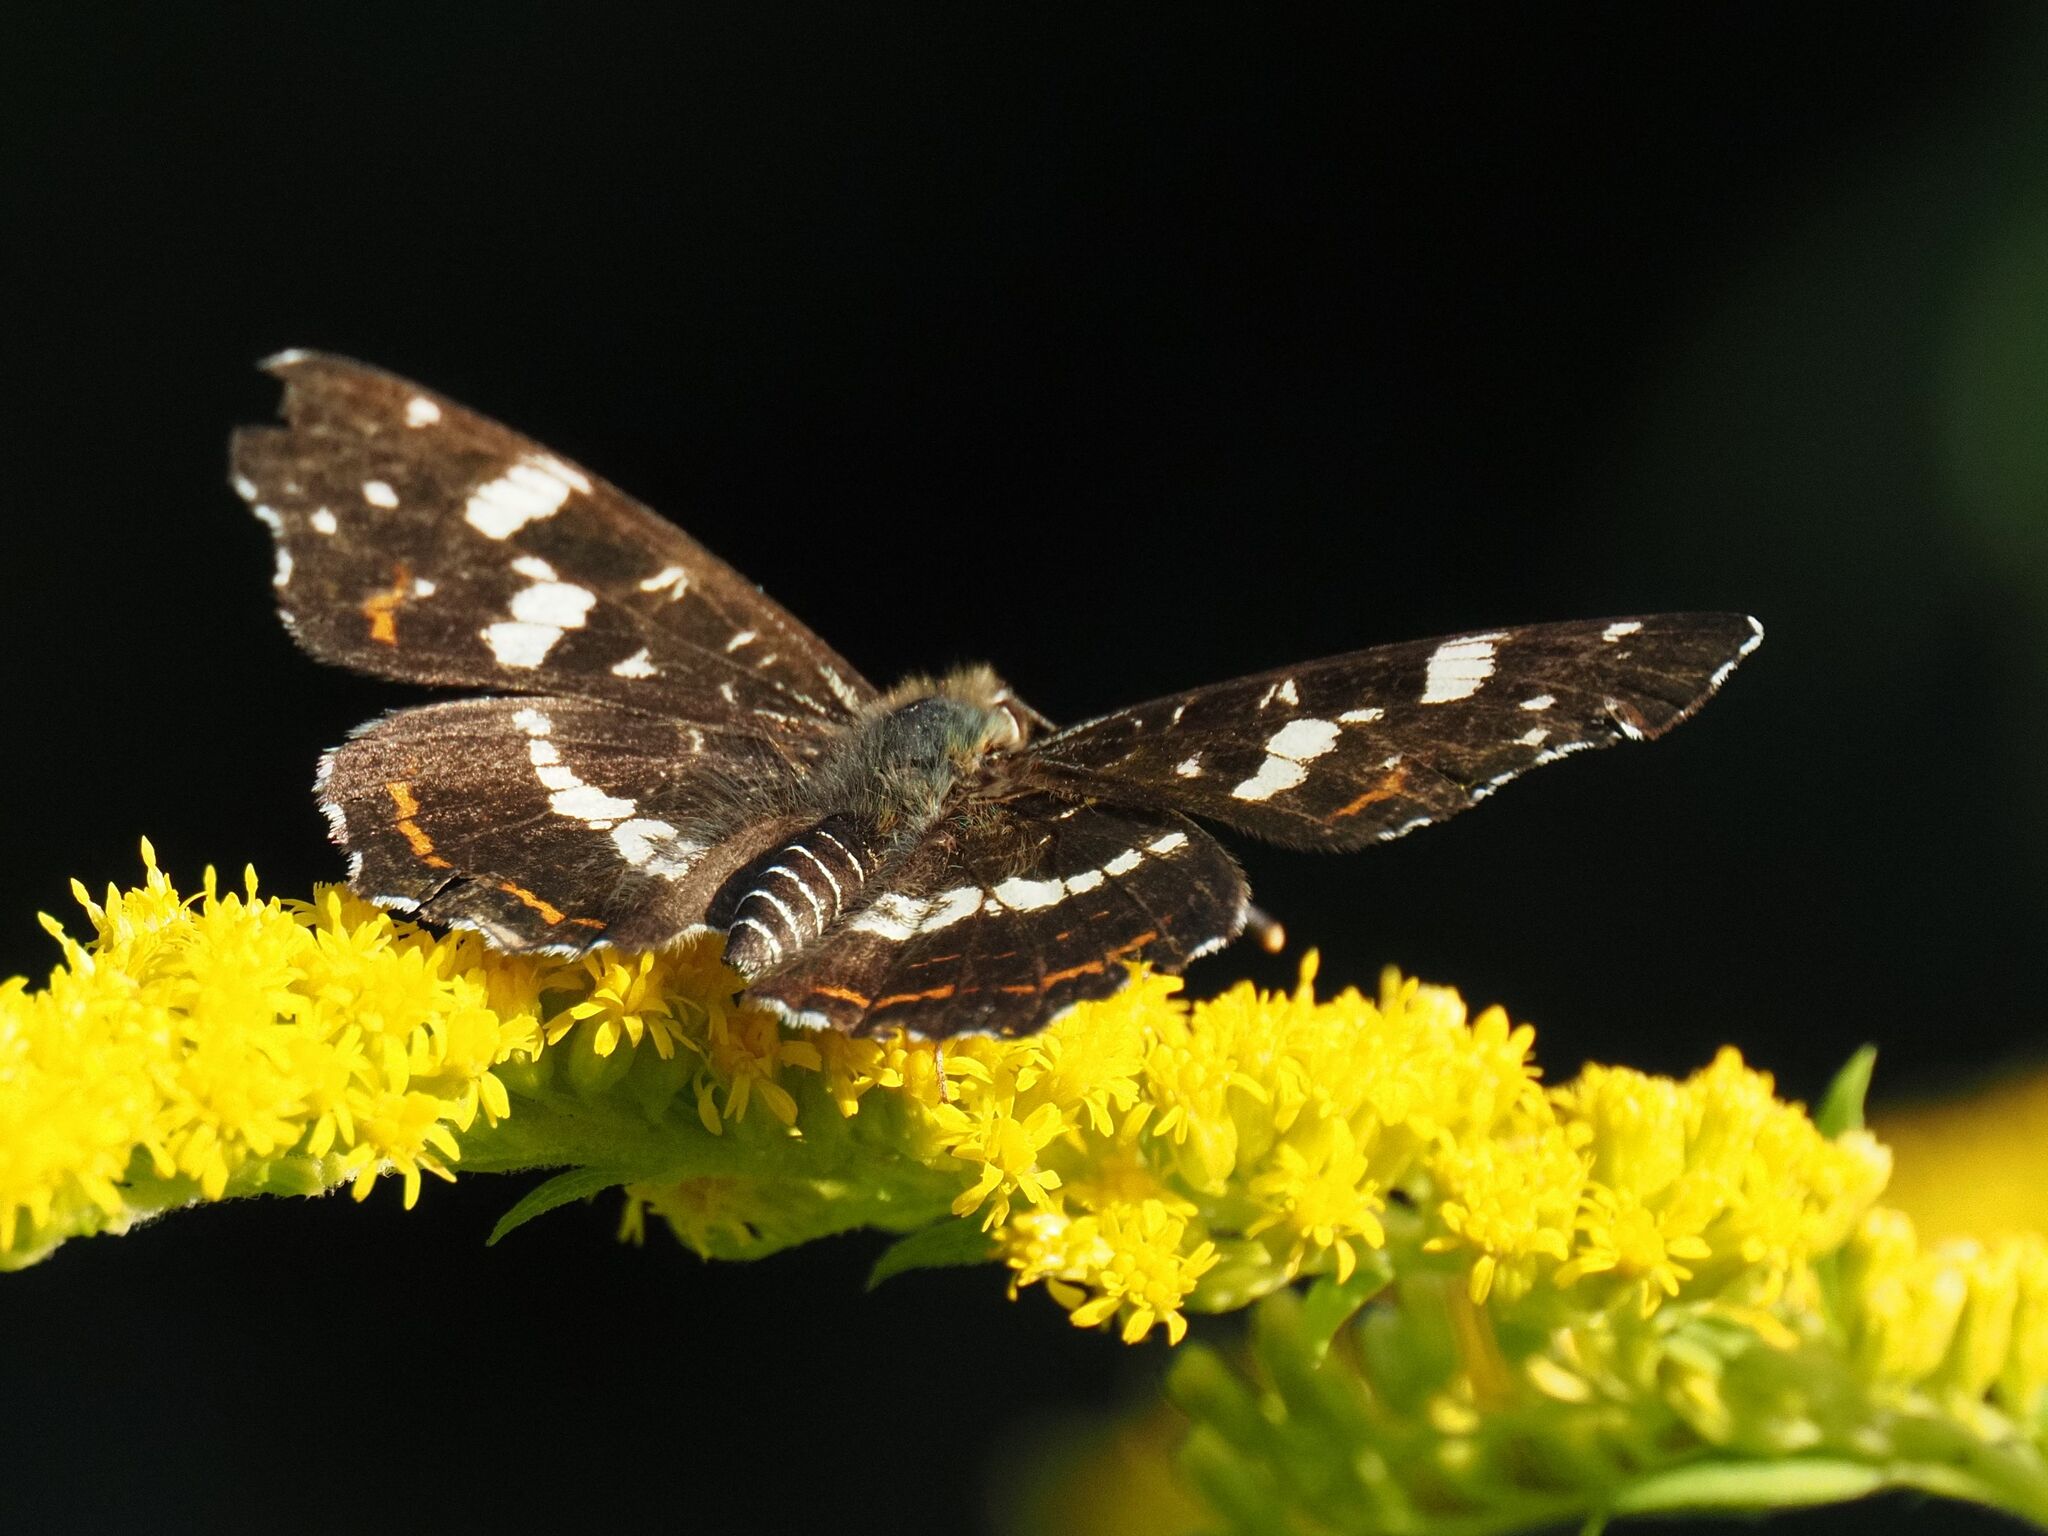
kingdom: Animalia
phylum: Arthropoda
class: Insecta
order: Lepidoptera
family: Nymphalidae
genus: Araschnia
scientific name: Araschnia levana
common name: Map butterfly
